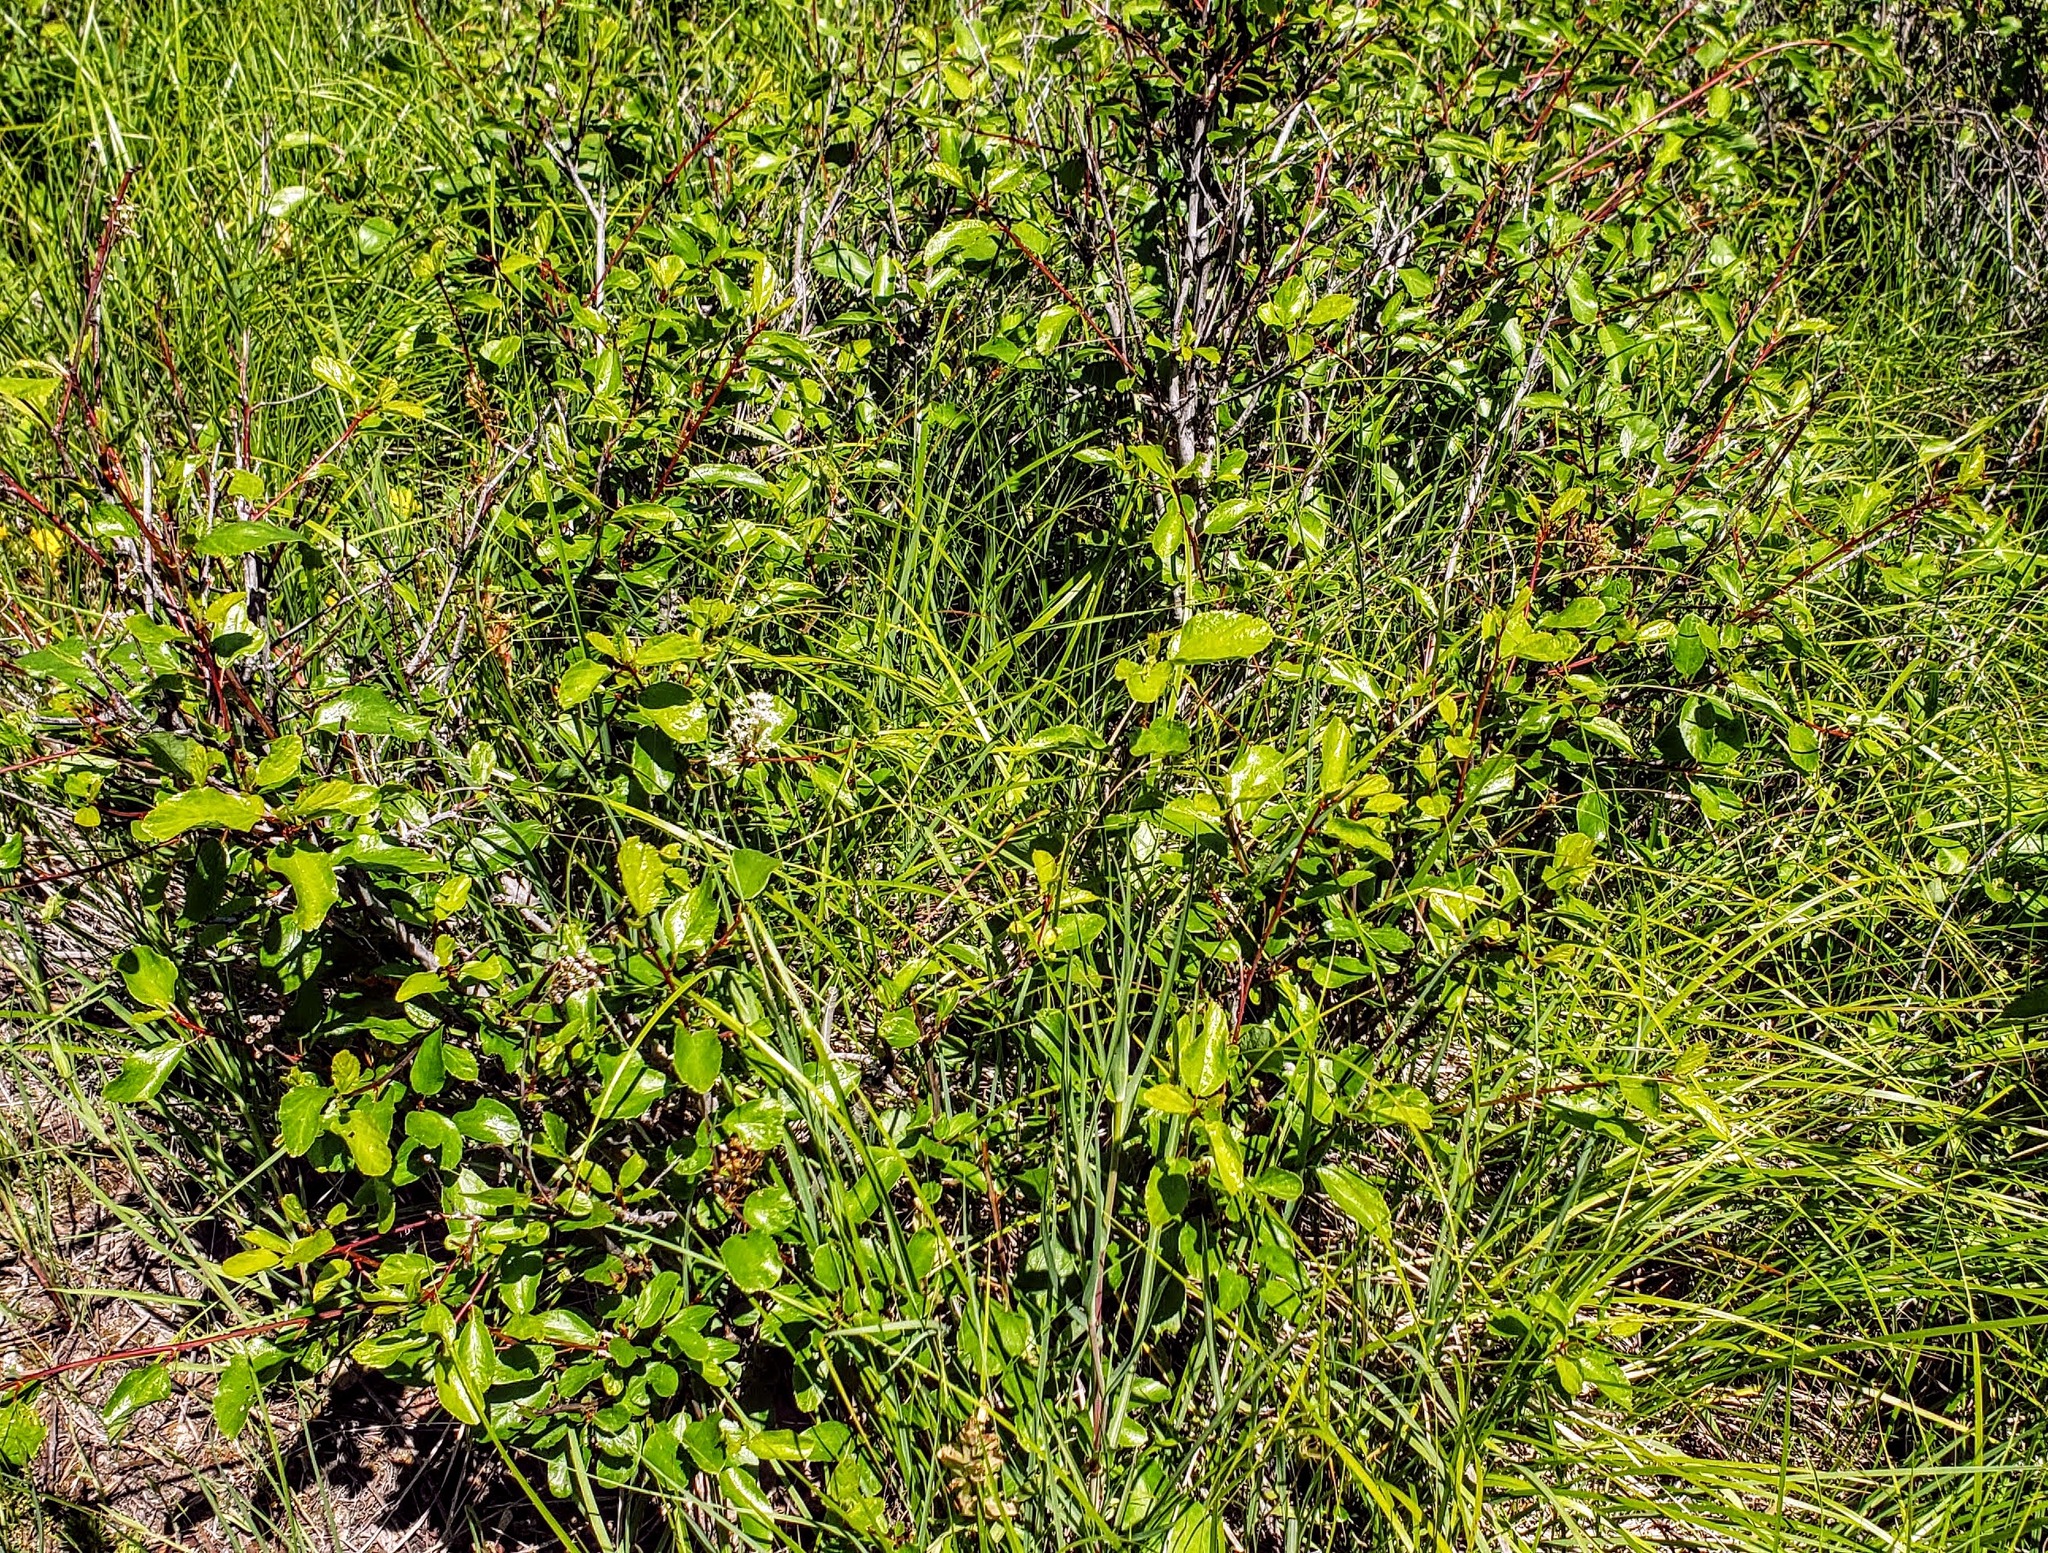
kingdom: Plantae
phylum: Tracheophyta
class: Magnoliopsida
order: Rosales
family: Rhamnaceae
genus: Ceanothus
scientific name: Ceanothus sanguineus
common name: Teatree
